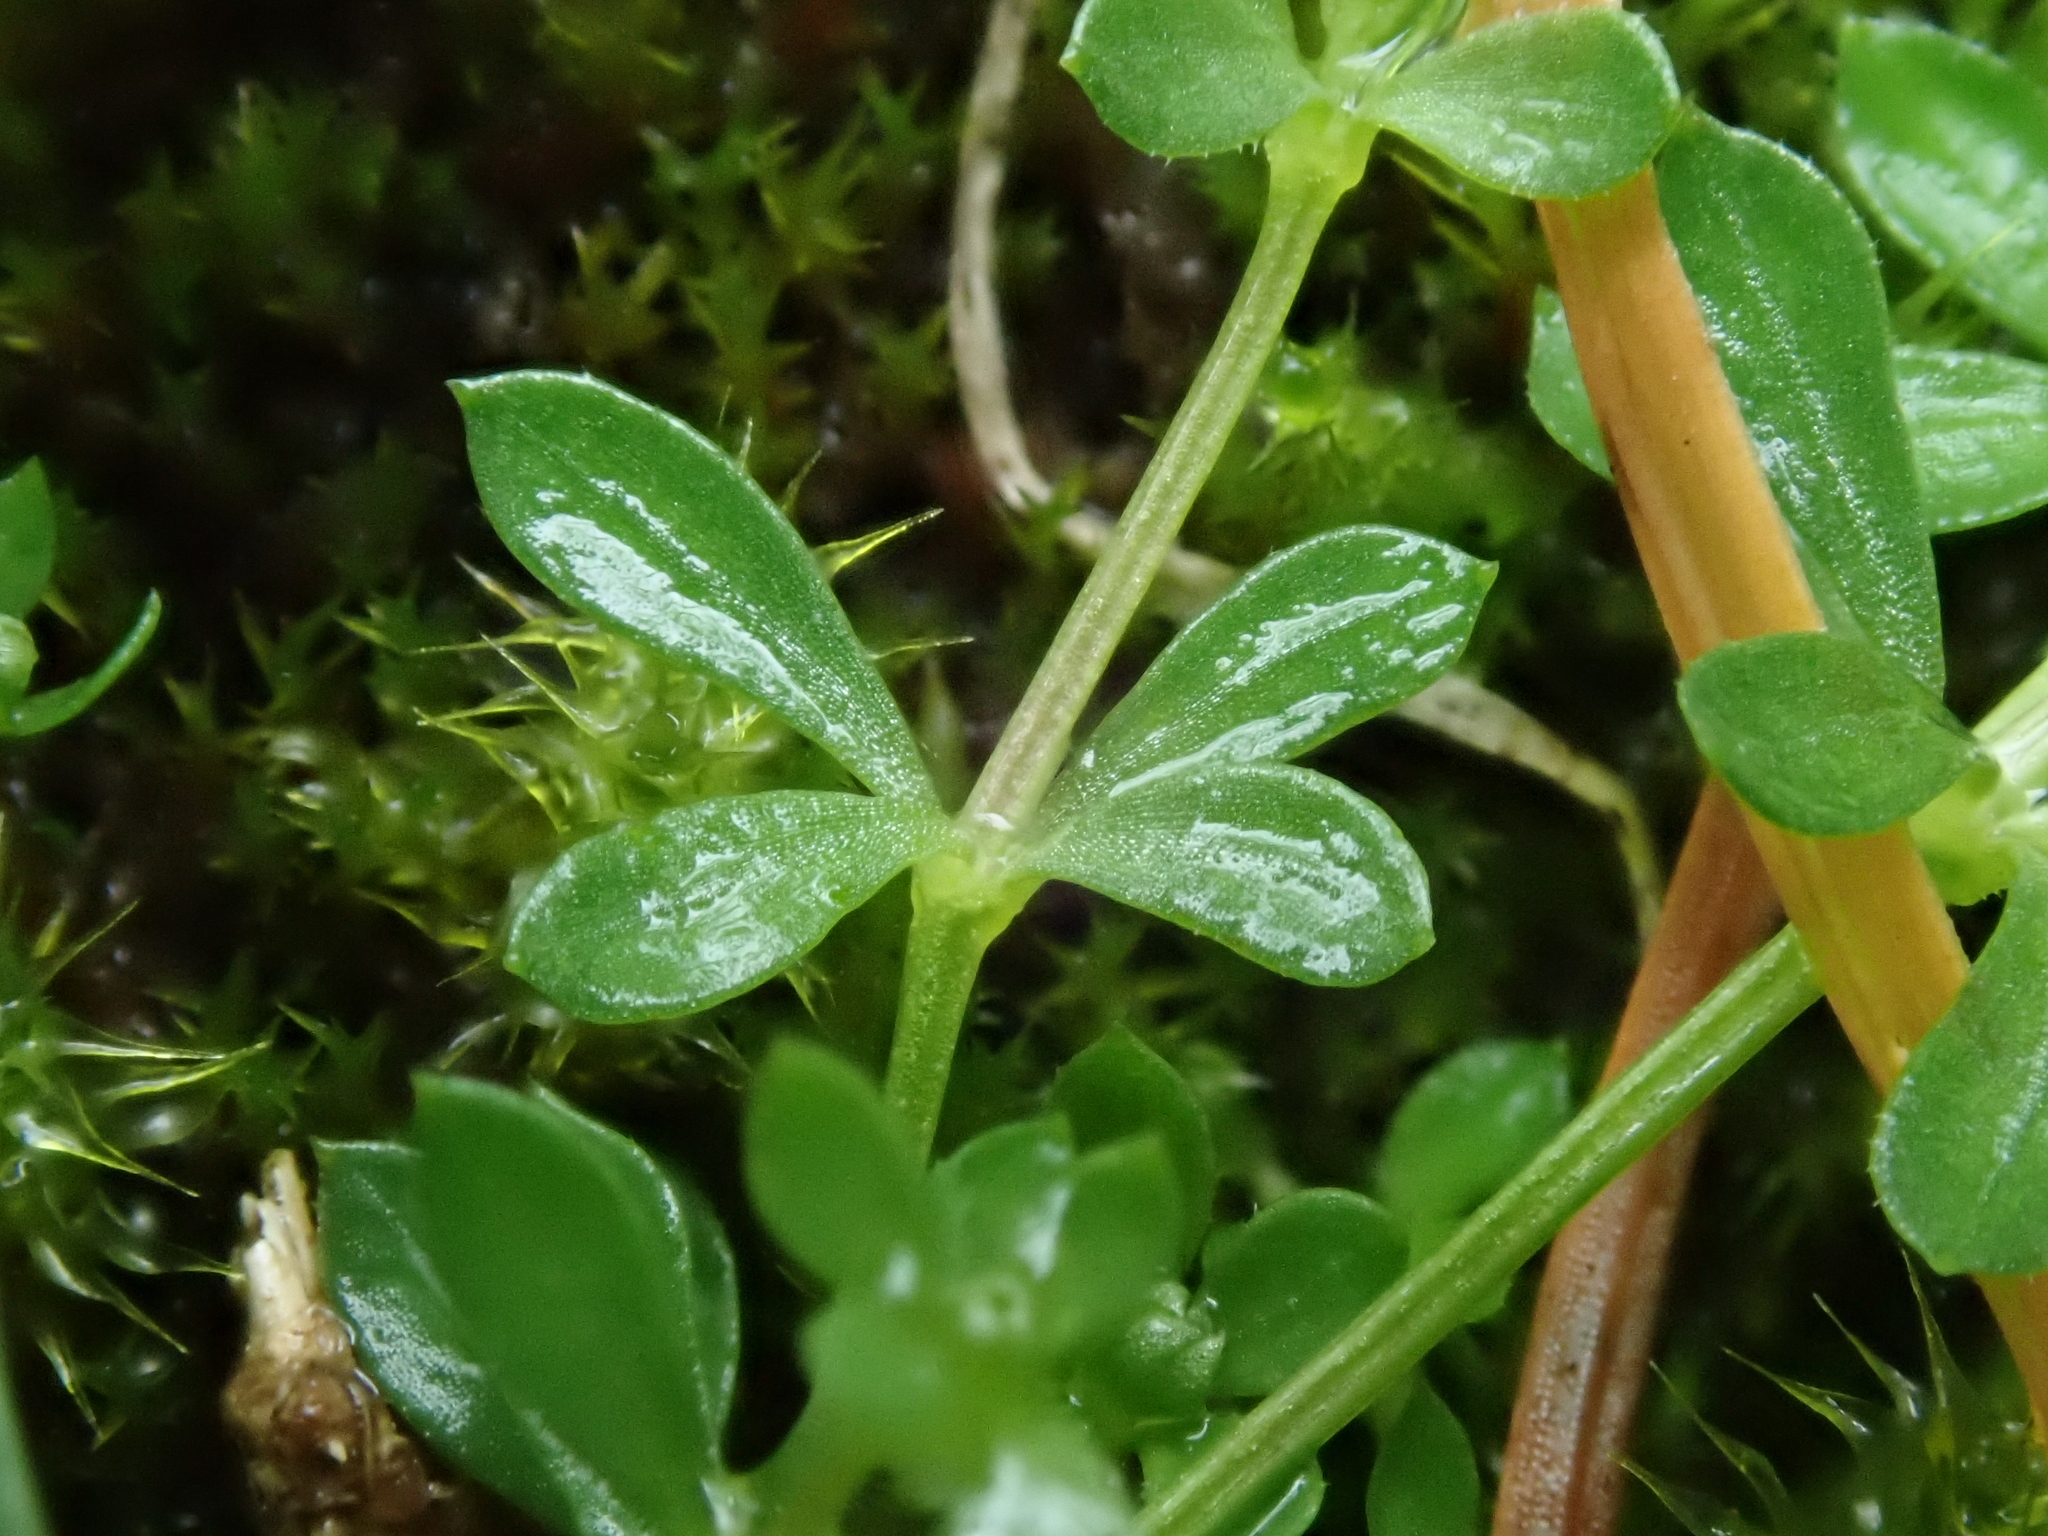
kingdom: Plantae
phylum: Tracheophyta
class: Magnoliopsida
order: Gentianales
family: Rubiaceae
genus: Galium
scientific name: Galium saxatile
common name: Heath bedstraw
